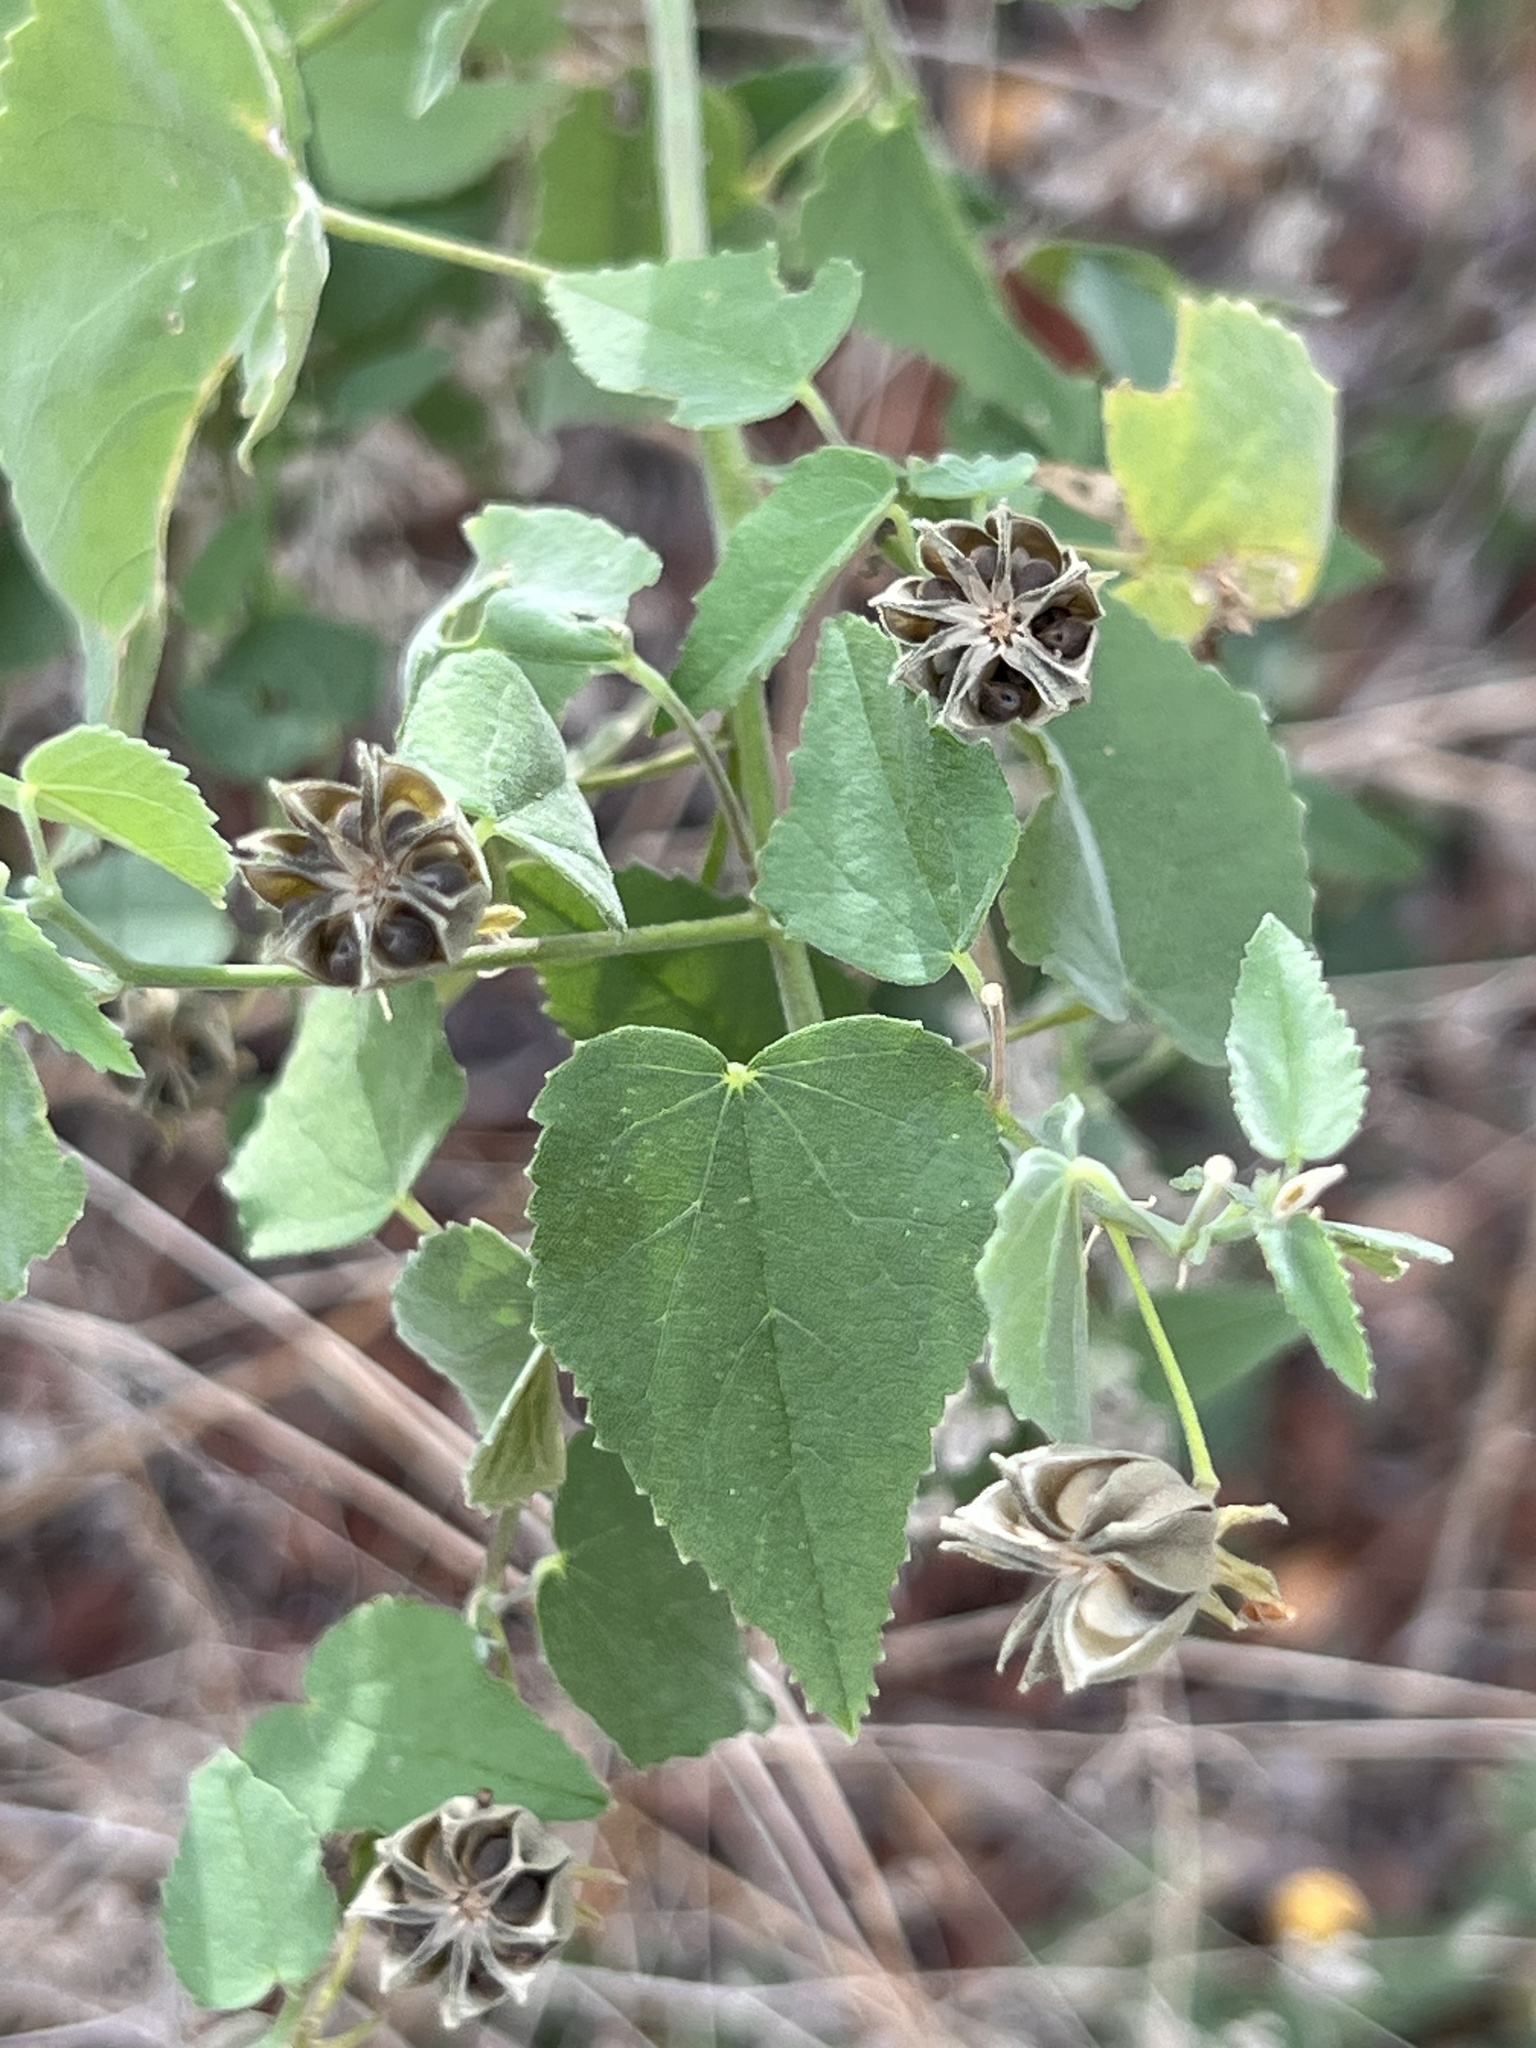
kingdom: Plantae
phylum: Tracheophyta
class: Magnoliopsida
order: Malvales
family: Malvaceae
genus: Abutilon
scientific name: Abutilon fruticosum
